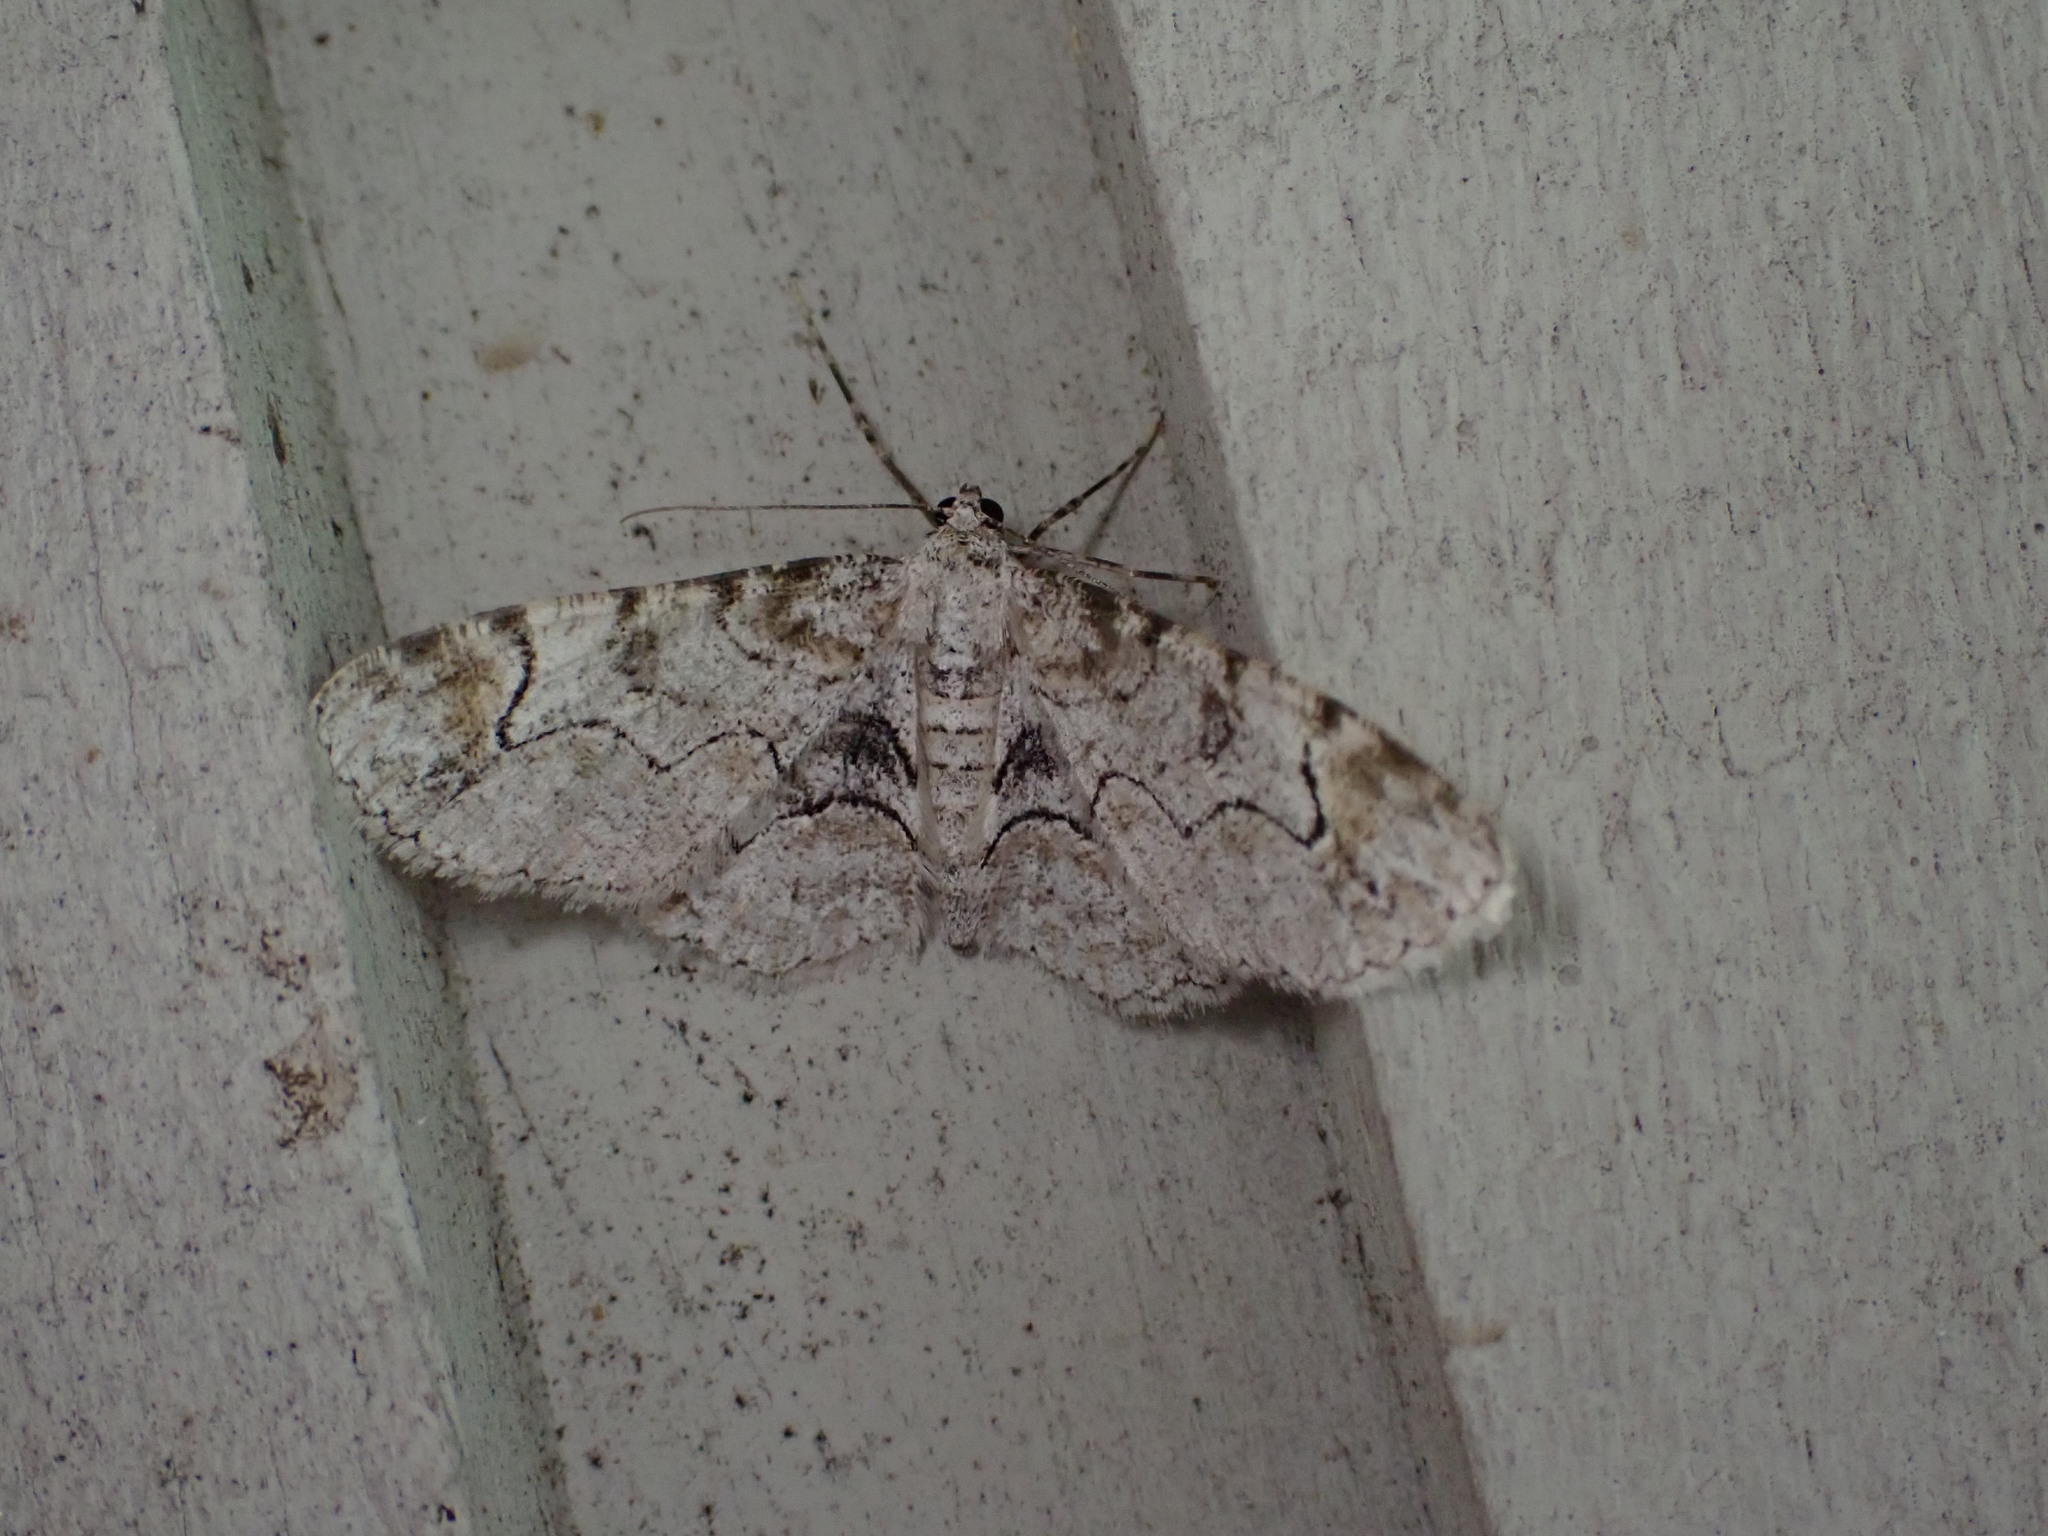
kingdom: Animalia
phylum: Arthropoda
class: Insecta
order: Lepidoptera
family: Geometridae
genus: Iridopsis
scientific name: Iridopsis larvaria
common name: Bent-line gray
